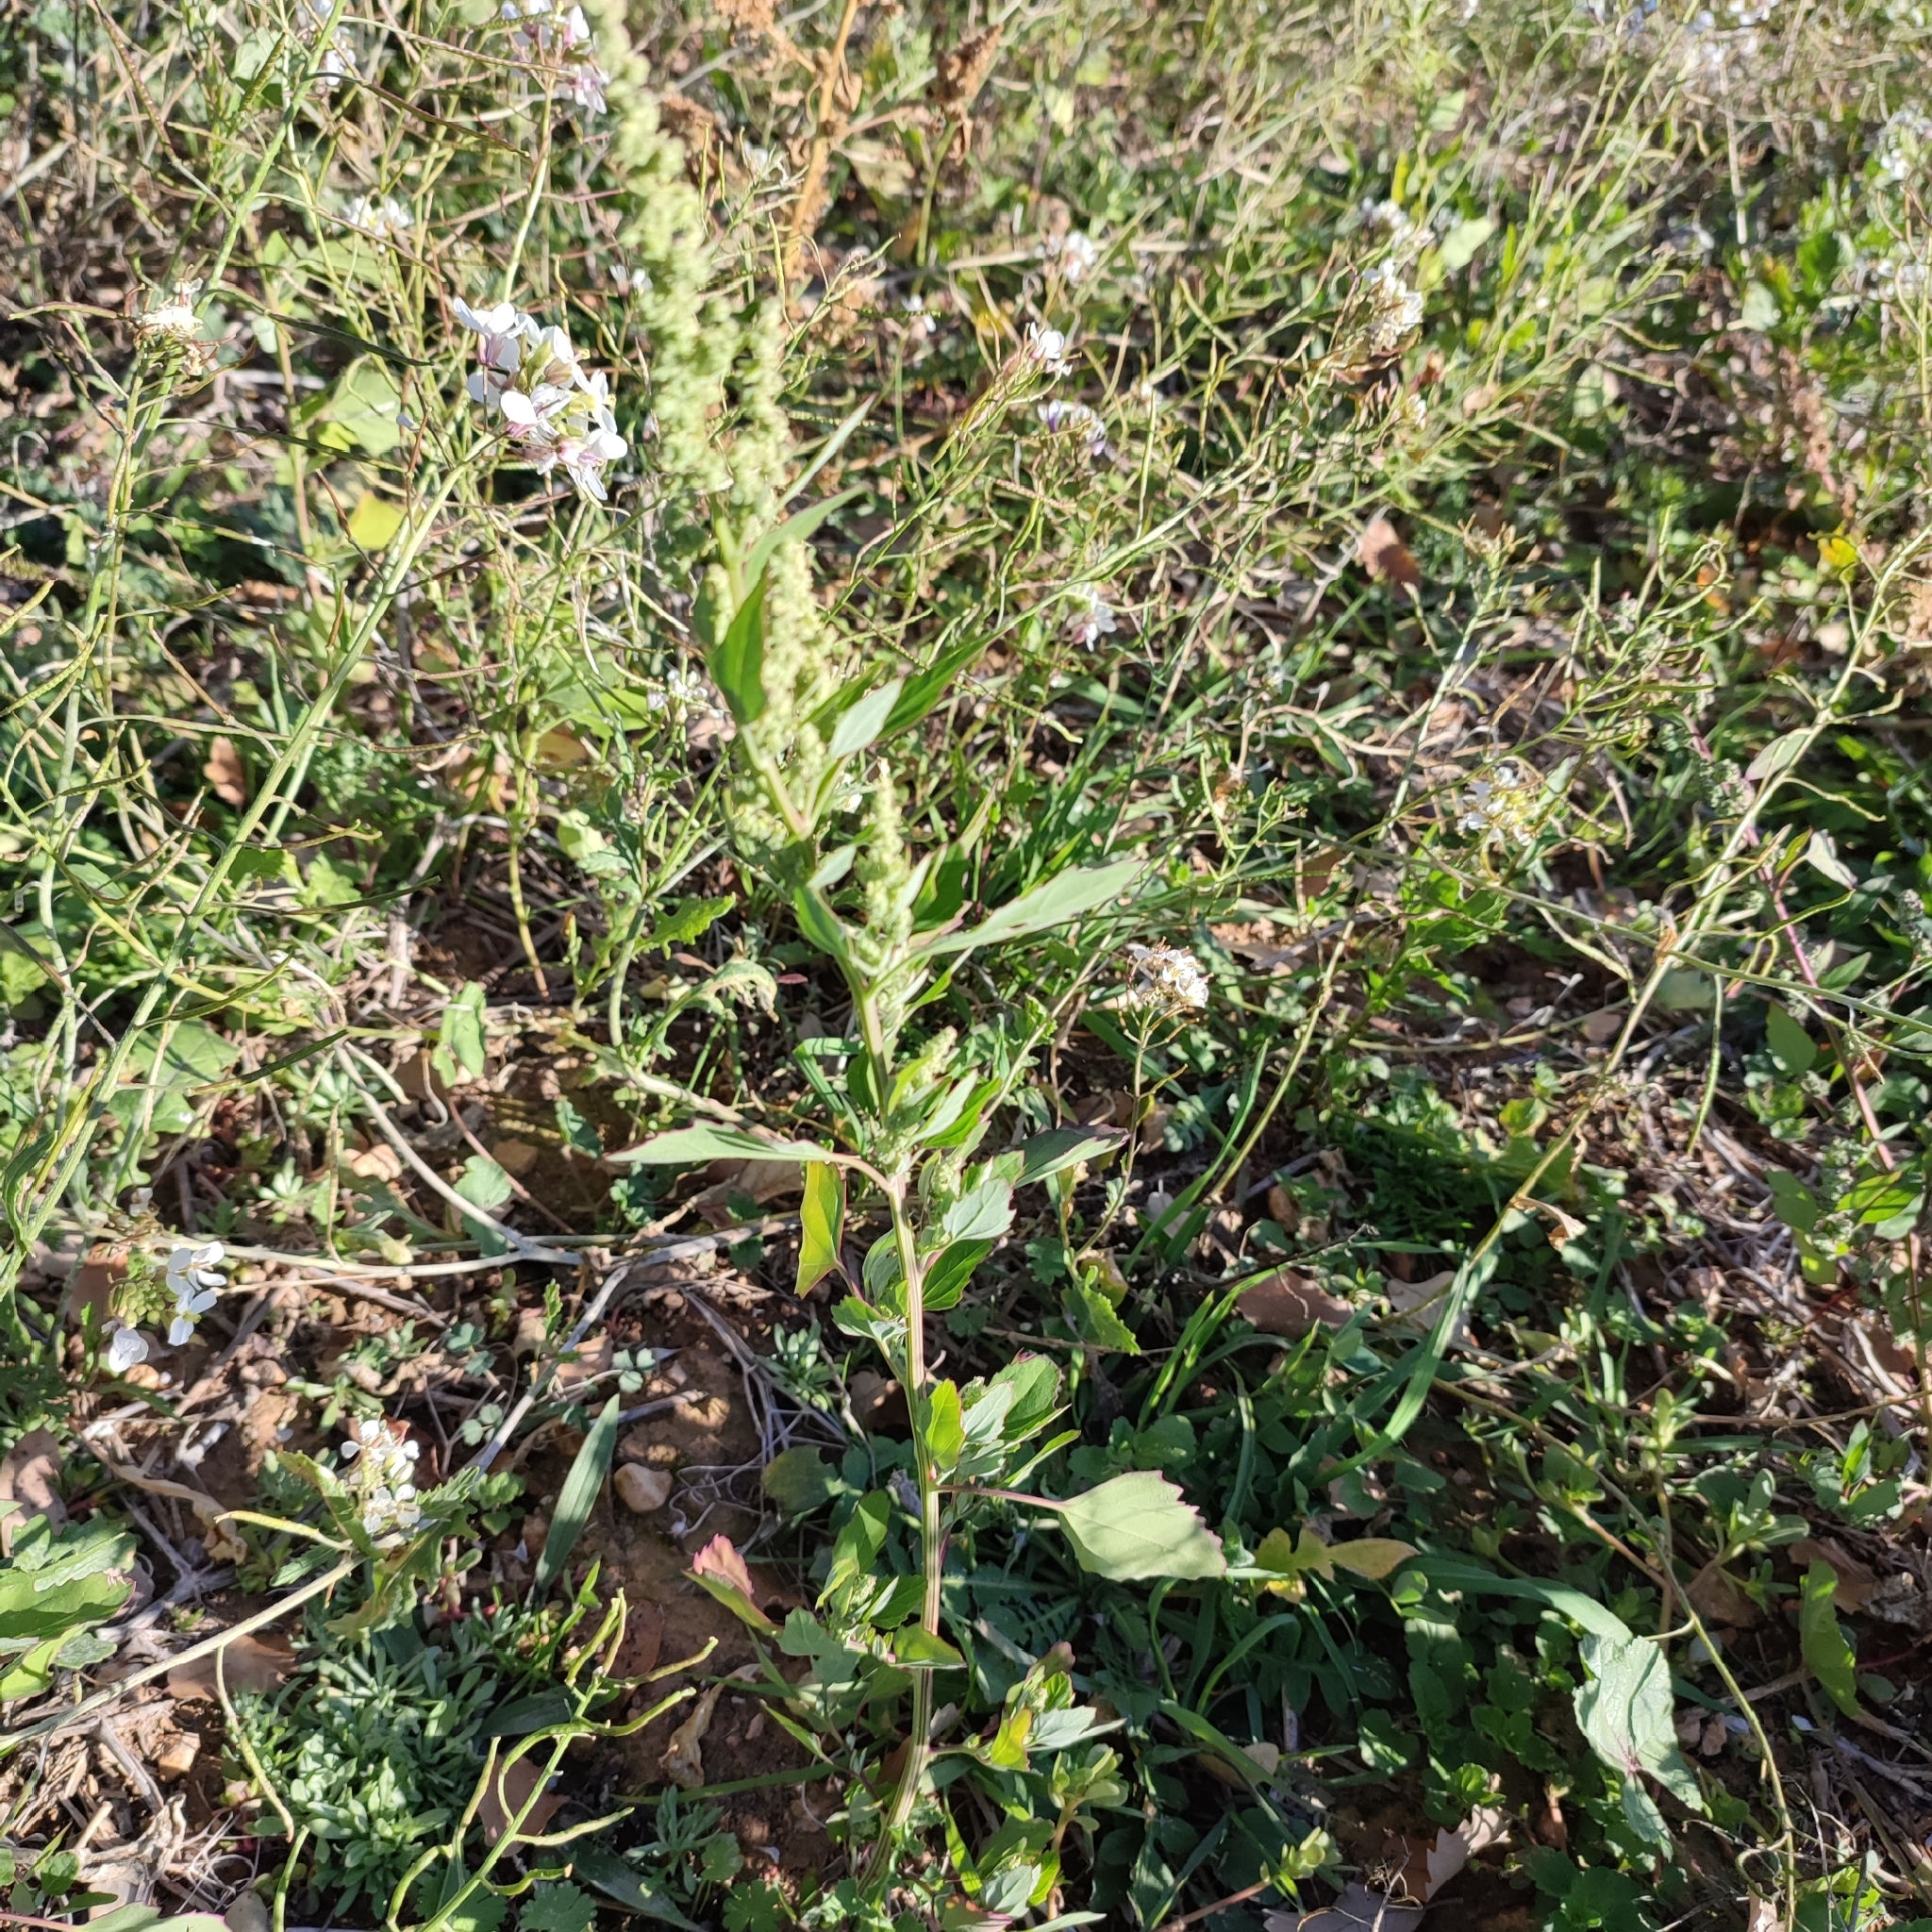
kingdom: Plantae
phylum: Tracheophyta
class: Magnoliopsida
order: Caryophyllales
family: Amaranthaceae
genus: Chenopodium
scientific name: Chenopodium album
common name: Fat-hen
